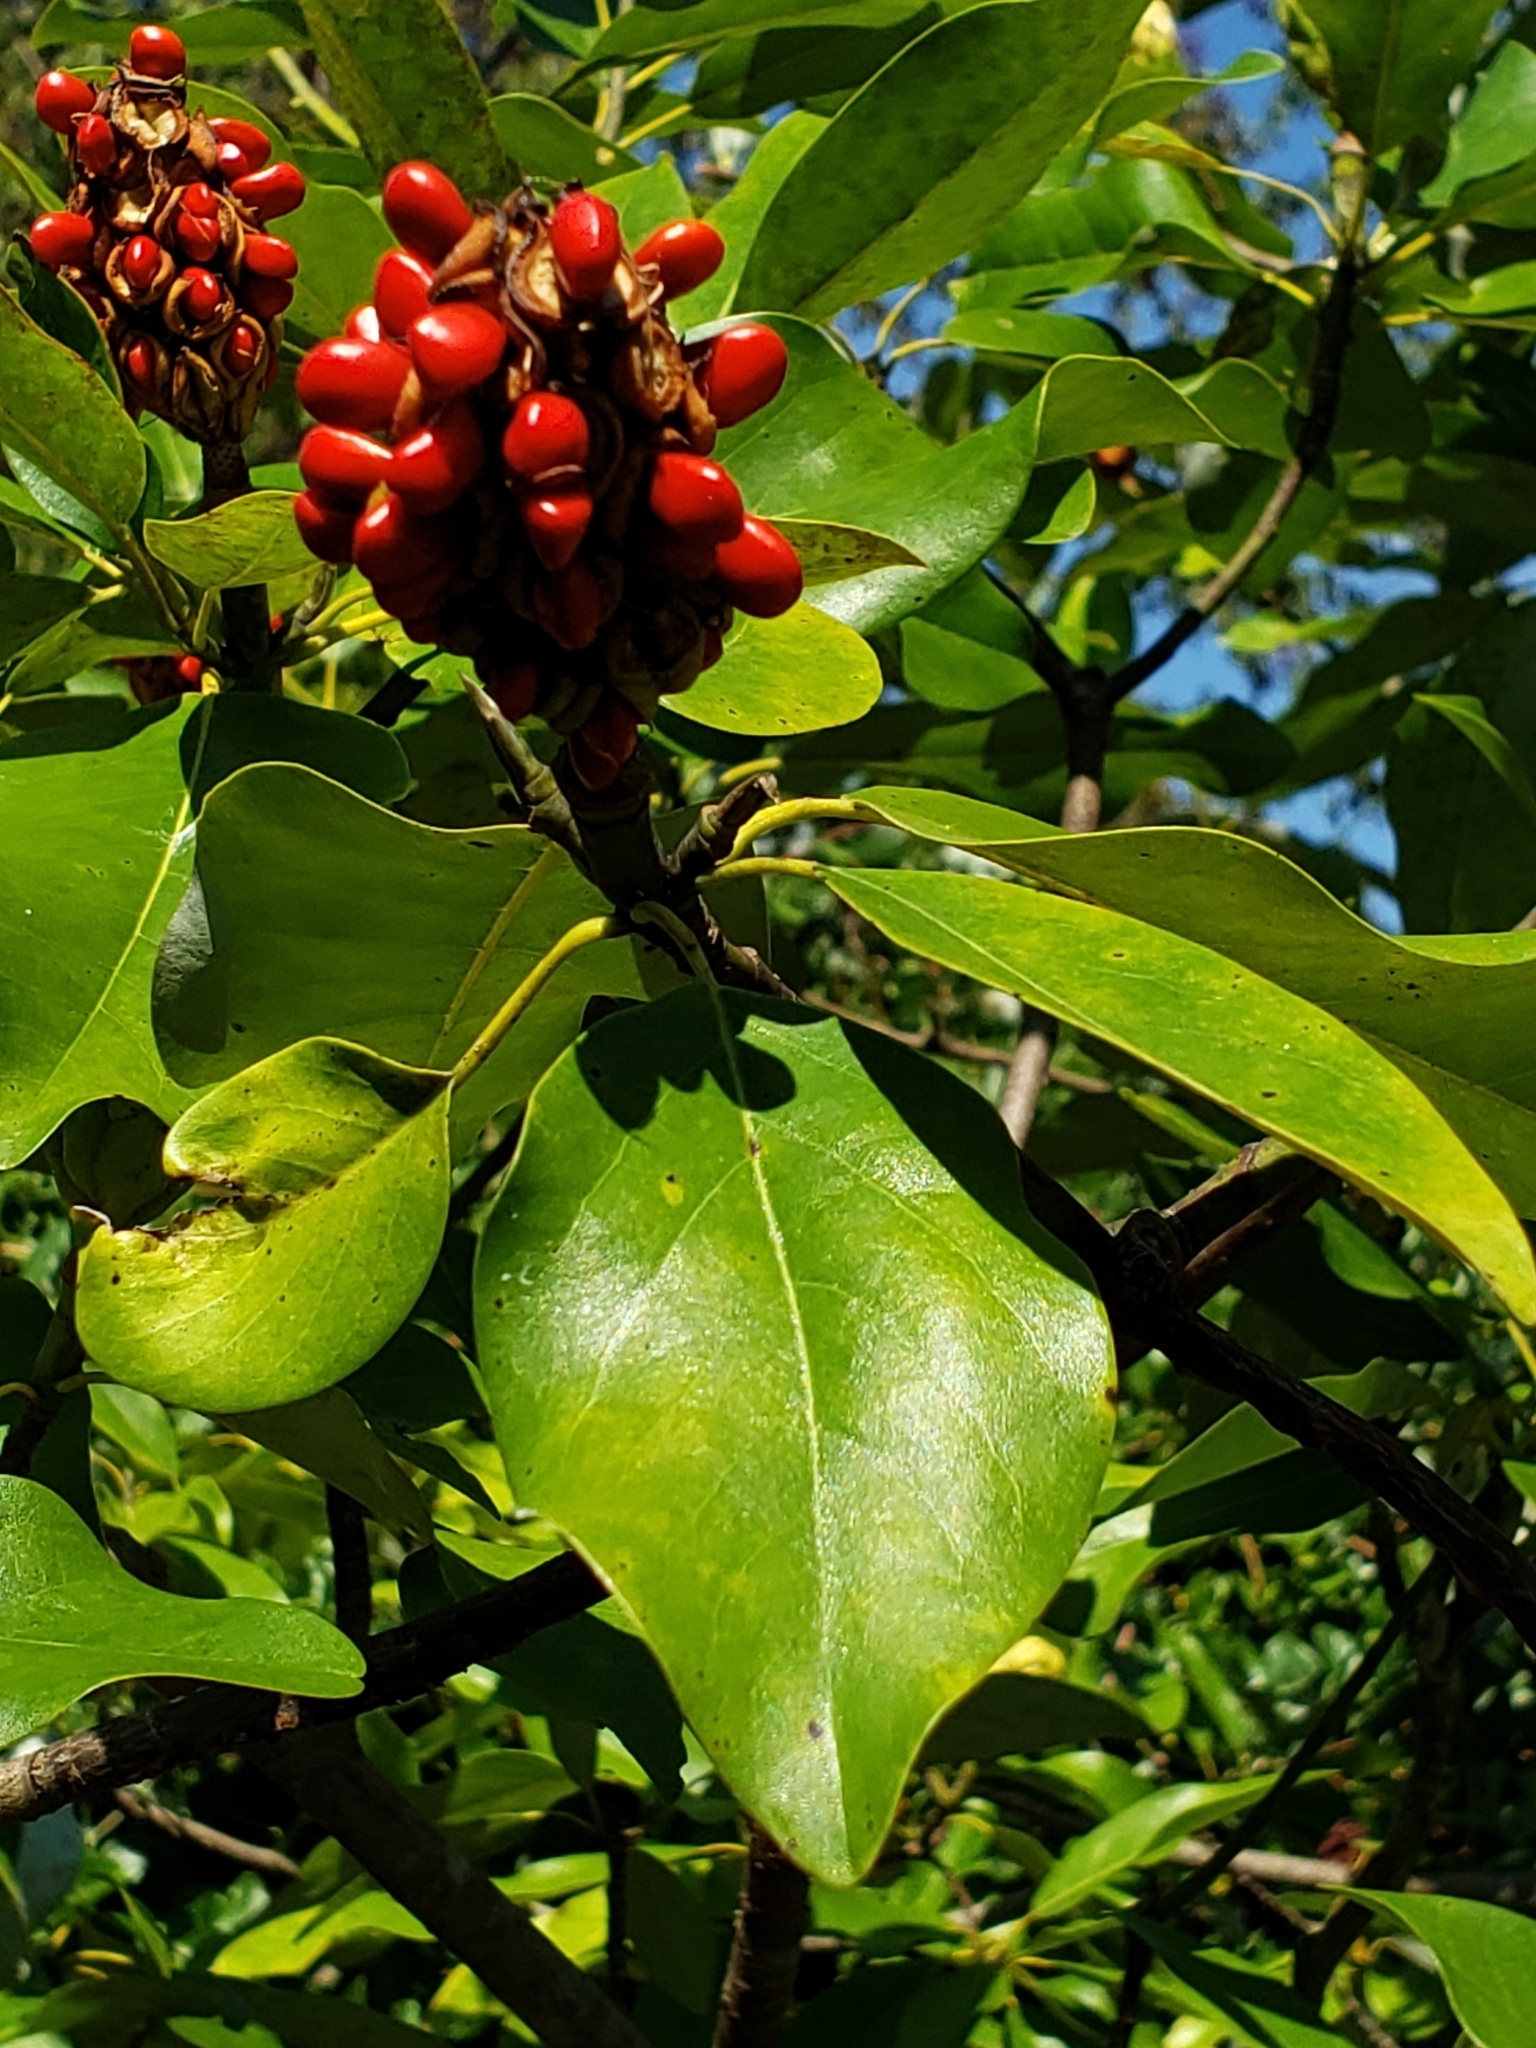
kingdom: Plantae
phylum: Tracheophyta
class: Magnoliopsida
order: Magnoliales
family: Magnoliaceae
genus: Magnolia
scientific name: Magnolia virginiana
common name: Swamp bay
